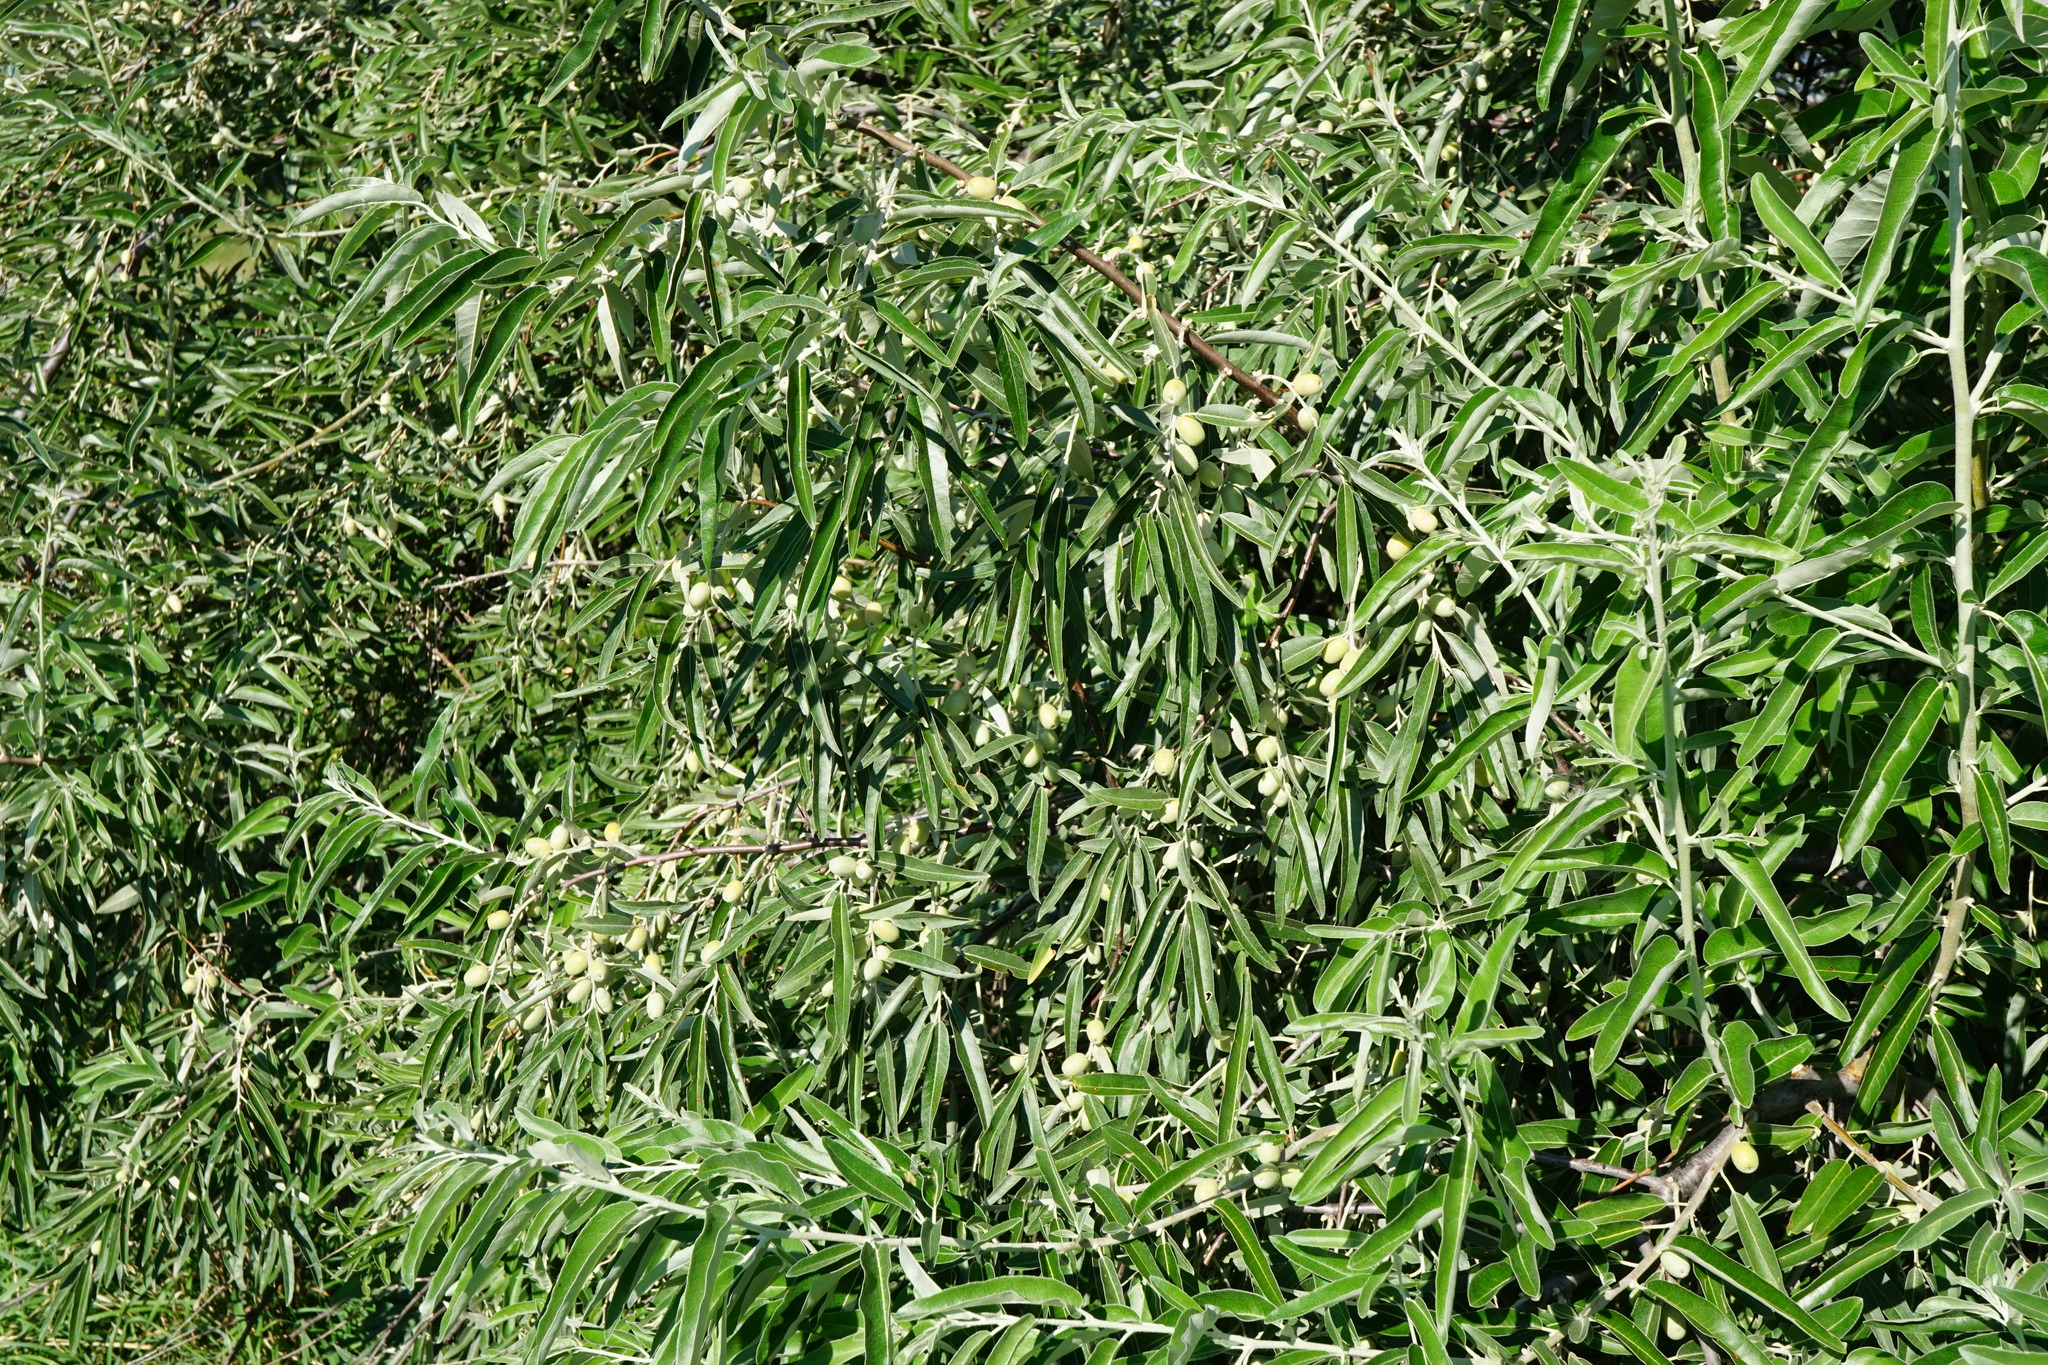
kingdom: Plantae
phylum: Tracheophyta
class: Magnoliopsida
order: Rosales
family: Elaeagnaceae
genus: Elaeagnus
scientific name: Elaeagnus angustifolia
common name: Russian olive
